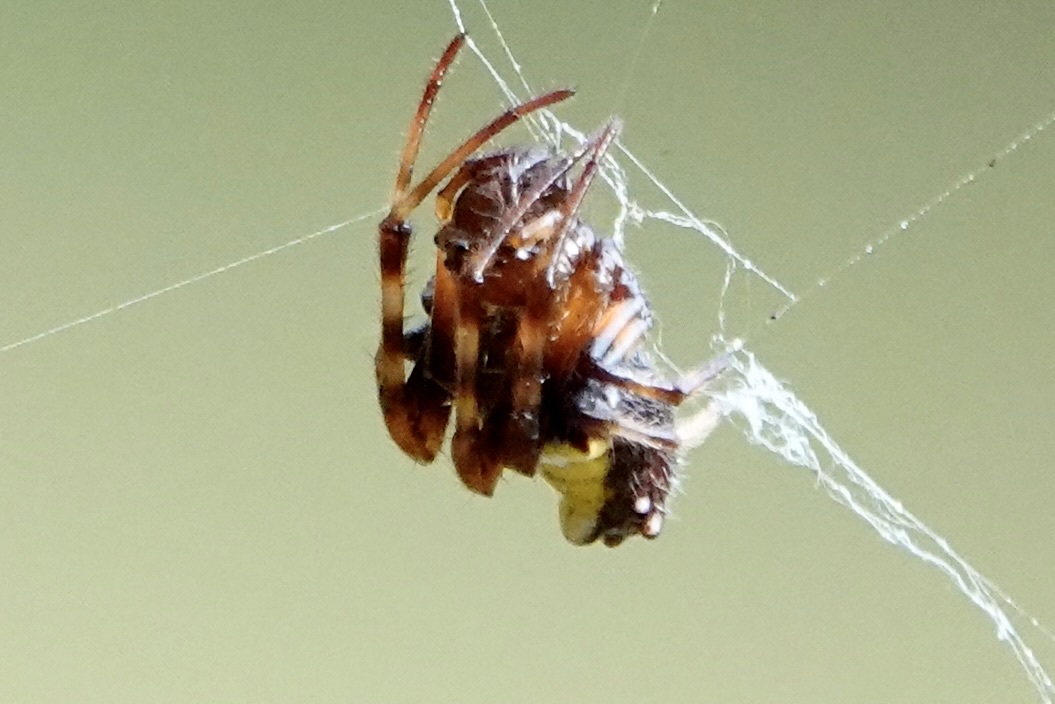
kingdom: Animalia
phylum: Arthropoda
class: Arachnida
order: Araneae
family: Araneidae
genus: Verrucosa
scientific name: Verrucosa arenata
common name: Orb weavers
